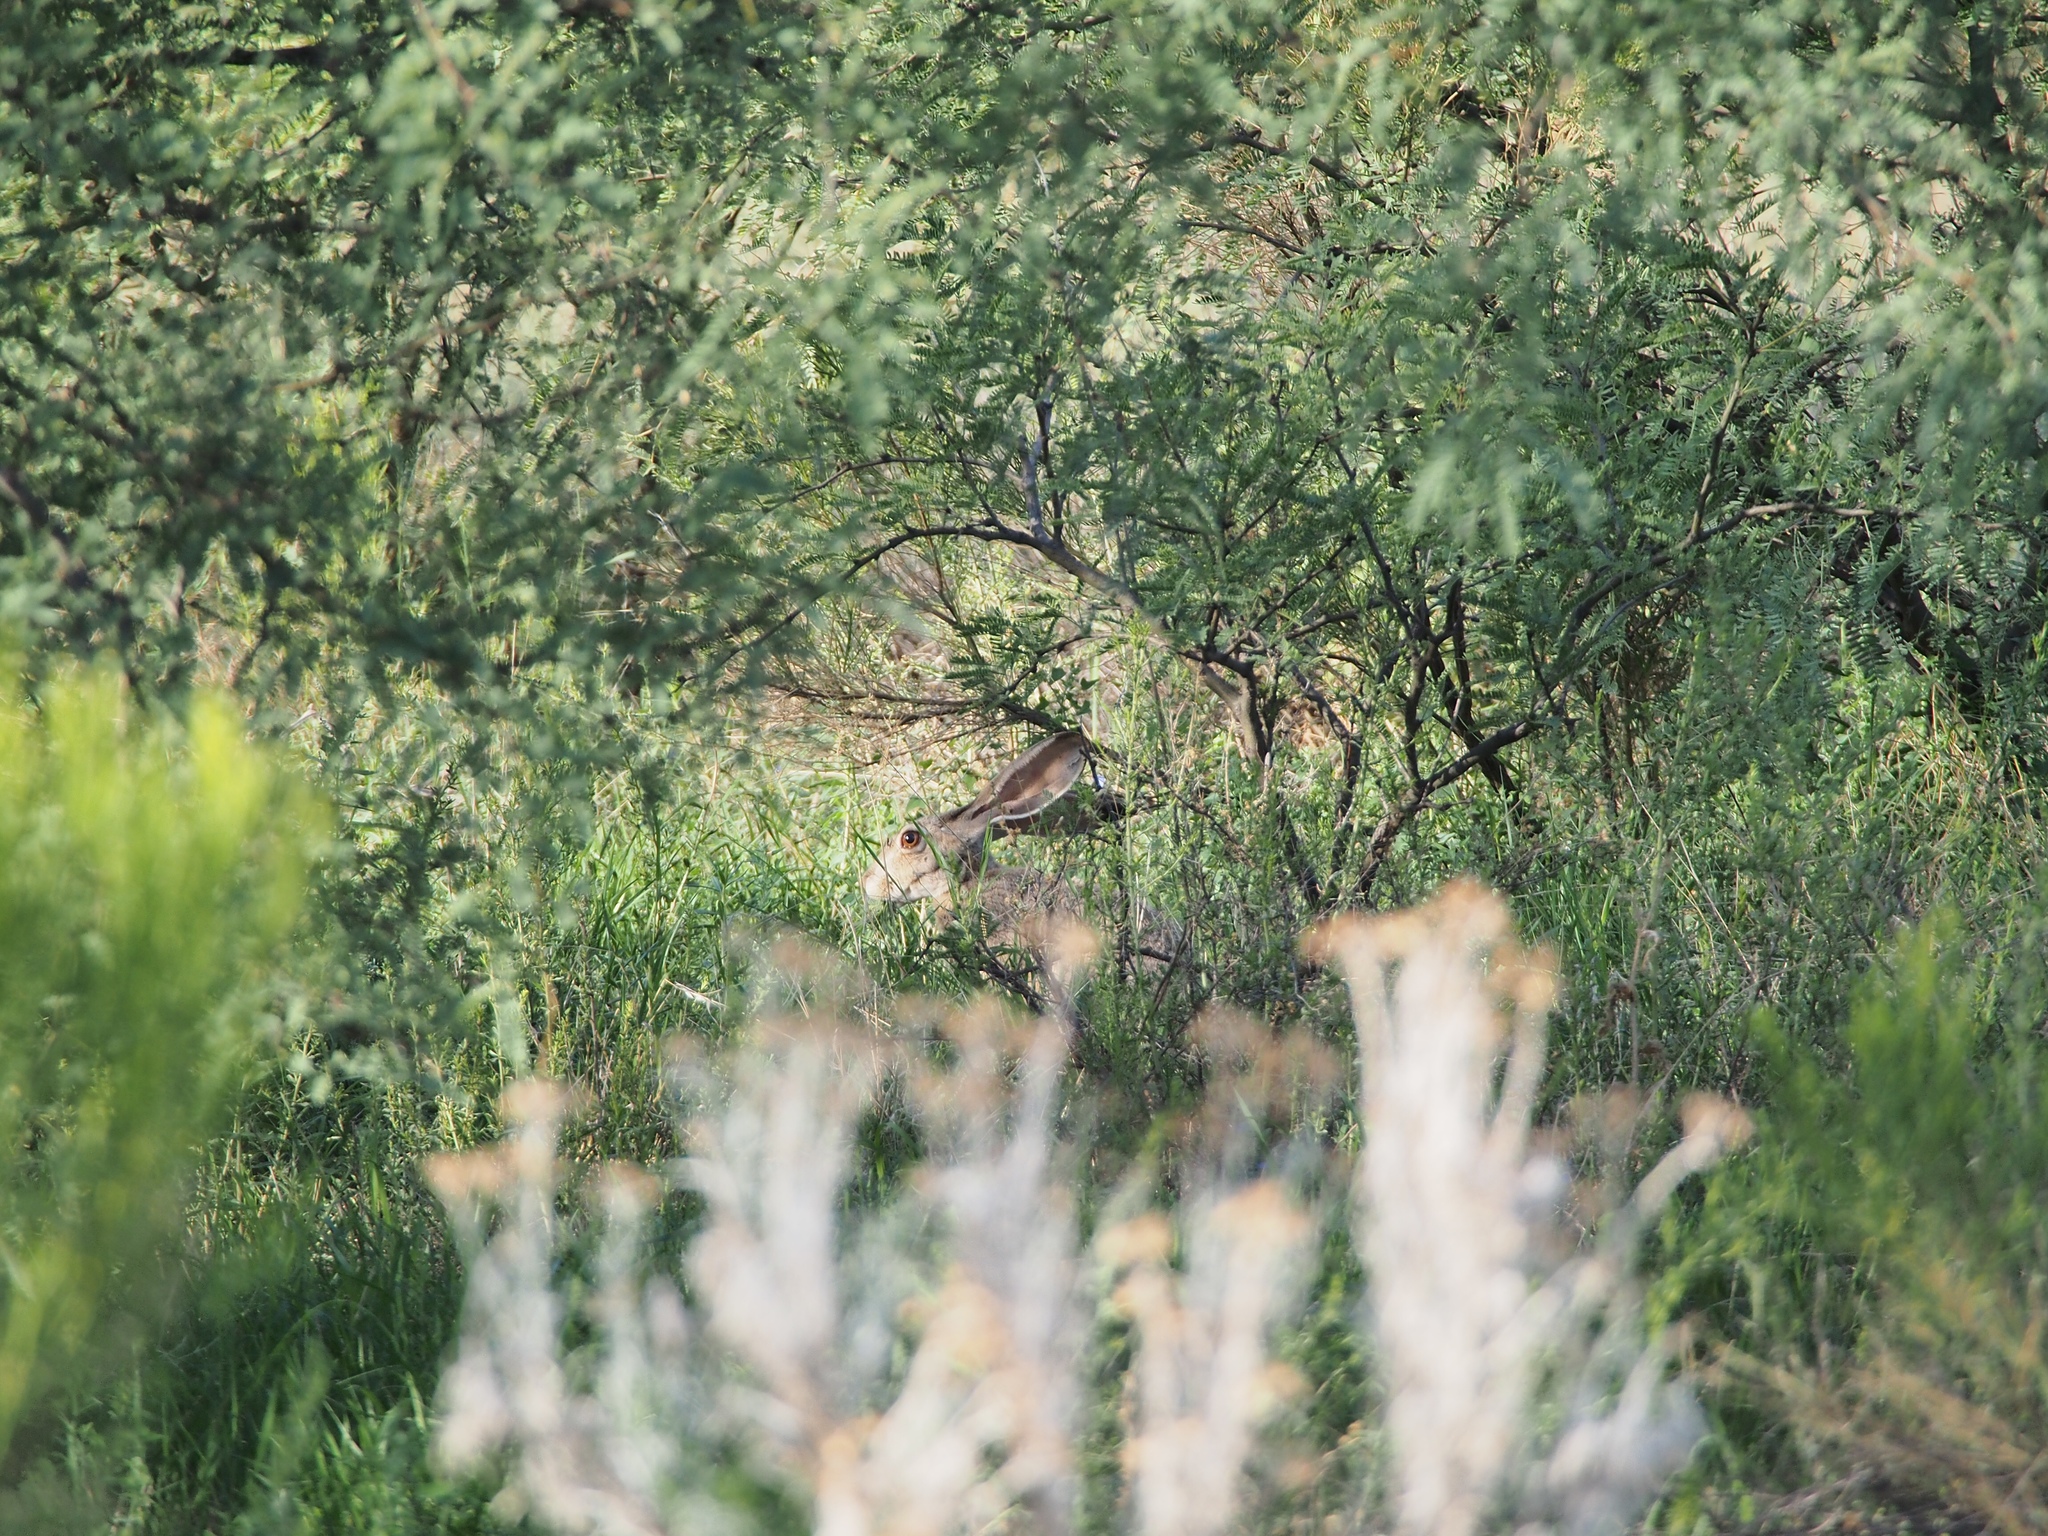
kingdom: Animalia
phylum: Chordata
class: Mammalia
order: Lagomorpha
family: Leporidae
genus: Lepus
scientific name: Lepus californicus
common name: Black-tailed jackrabbit
